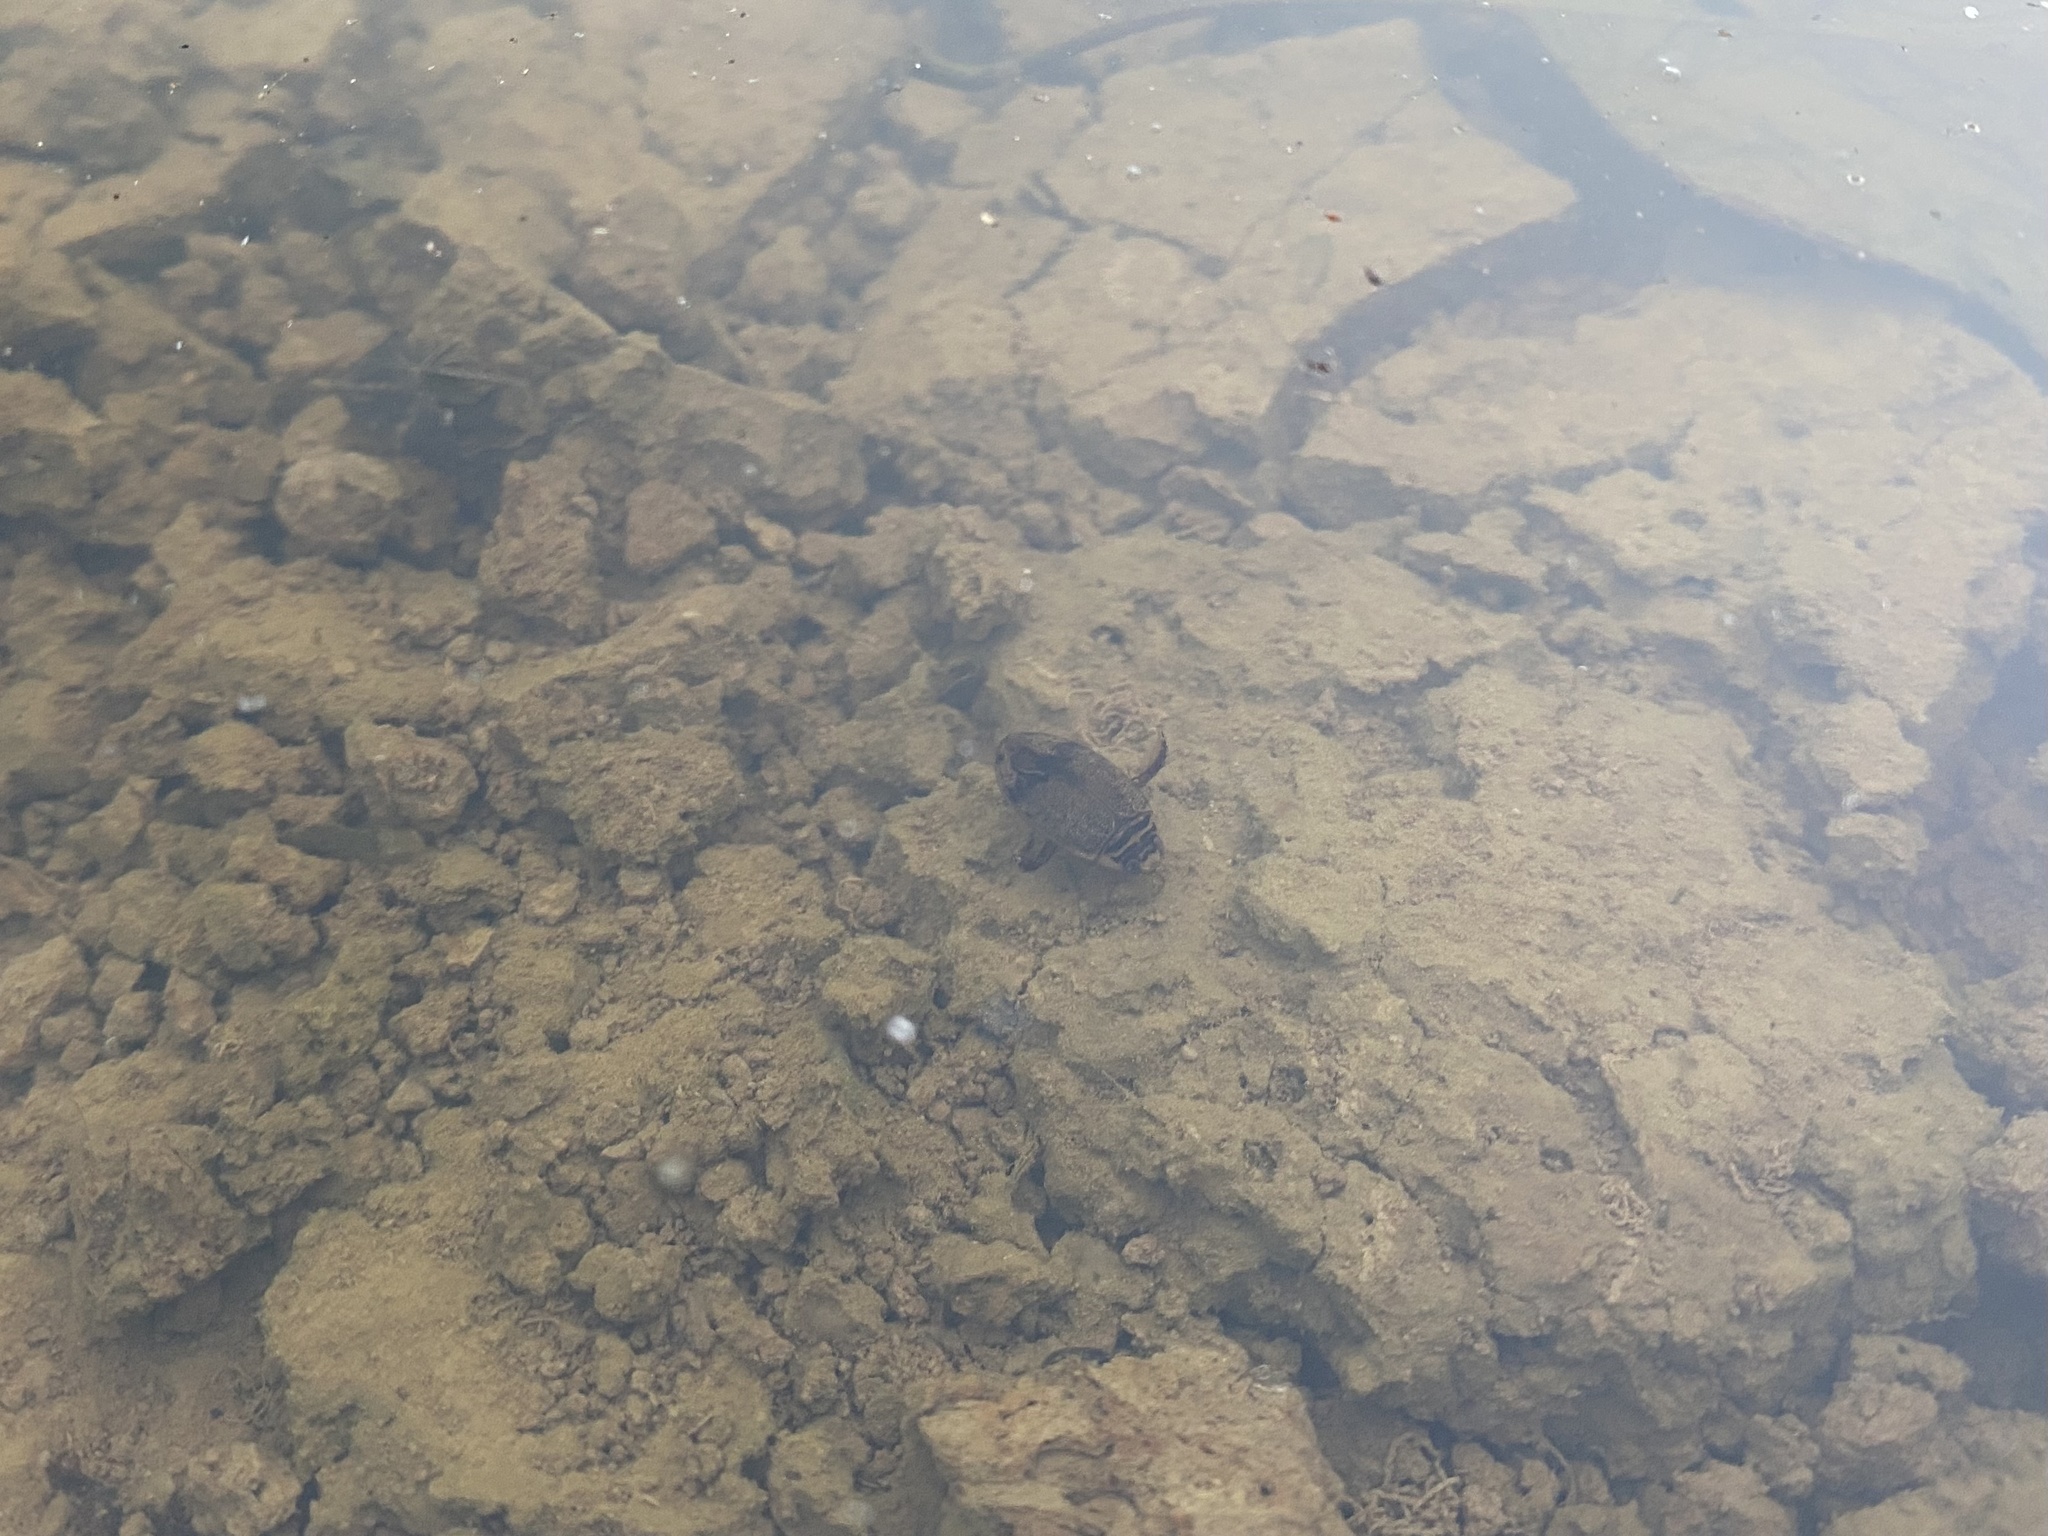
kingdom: Animalia
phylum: Arthropoda
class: Insecta
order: Coleoptera
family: Dytiscidae
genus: Thermonectus
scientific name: Thermonectus nigrofasciatus
